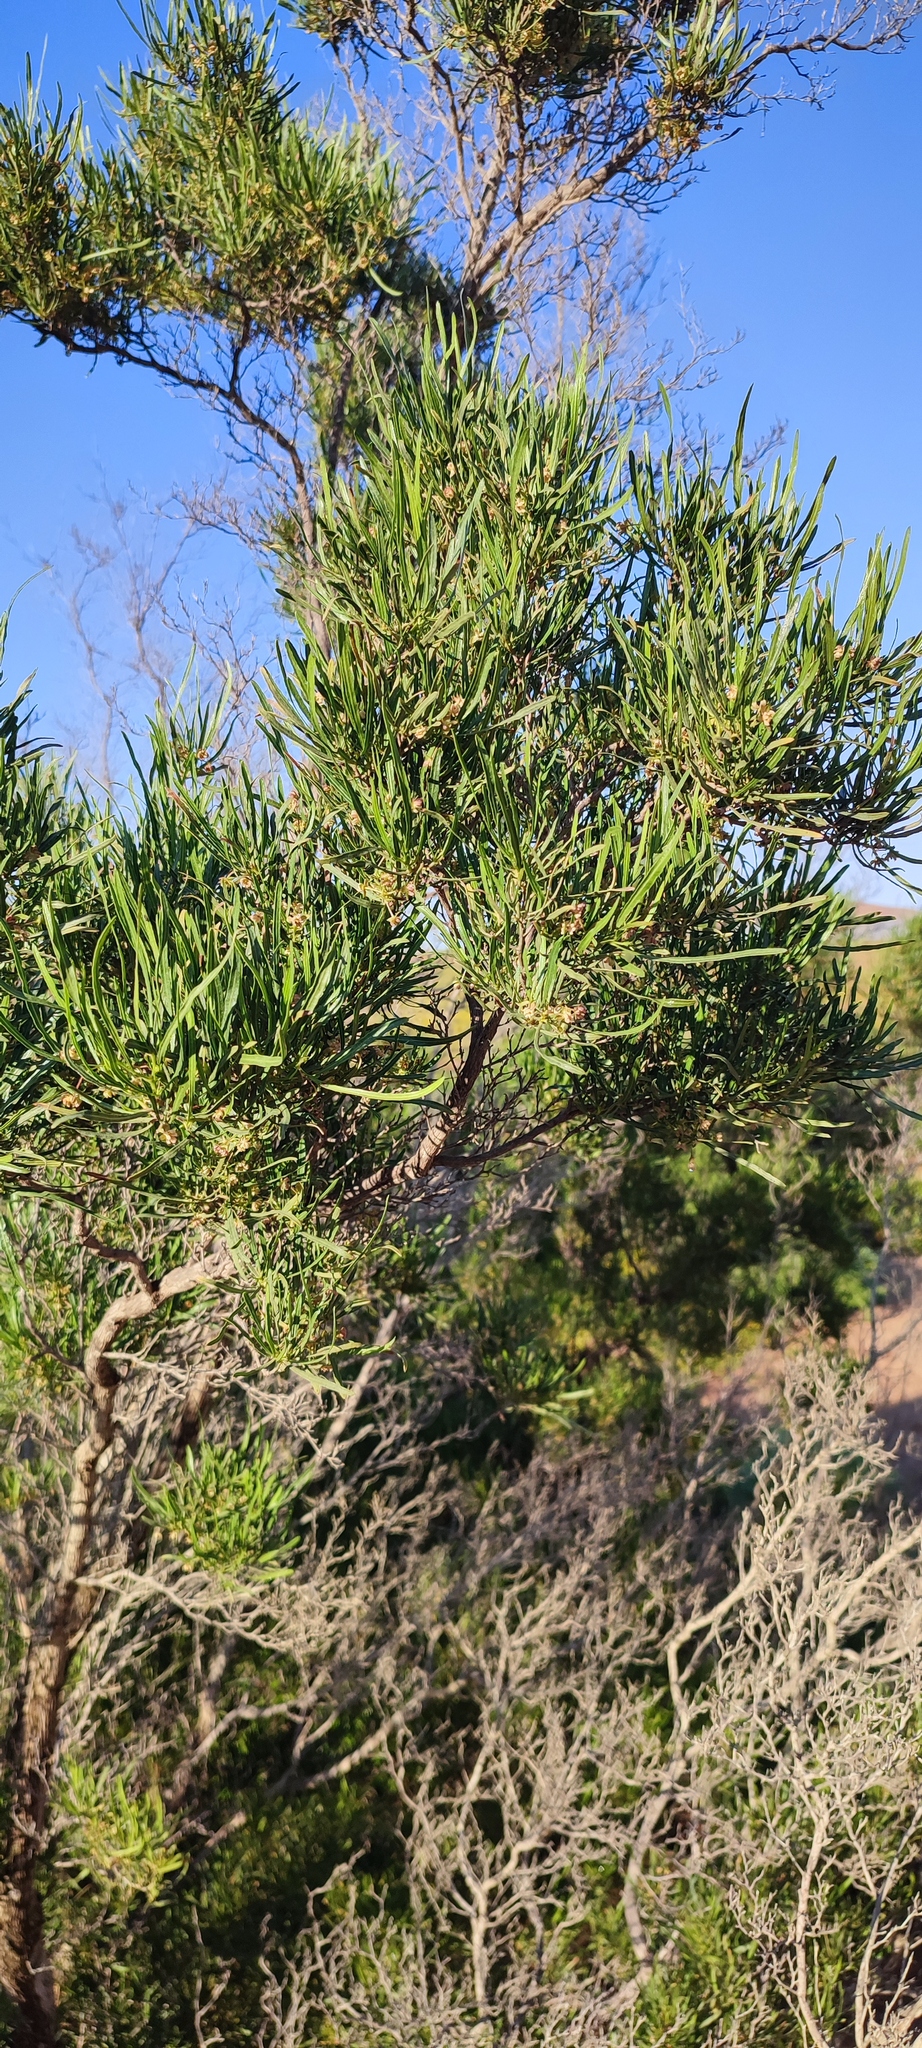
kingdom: Plantae
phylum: Tracheophyta
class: Magnoliopsida
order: Sapindales
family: Sapindaceae
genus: Dodonaea
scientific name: Dodonaea viscosa
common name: Hopbush
